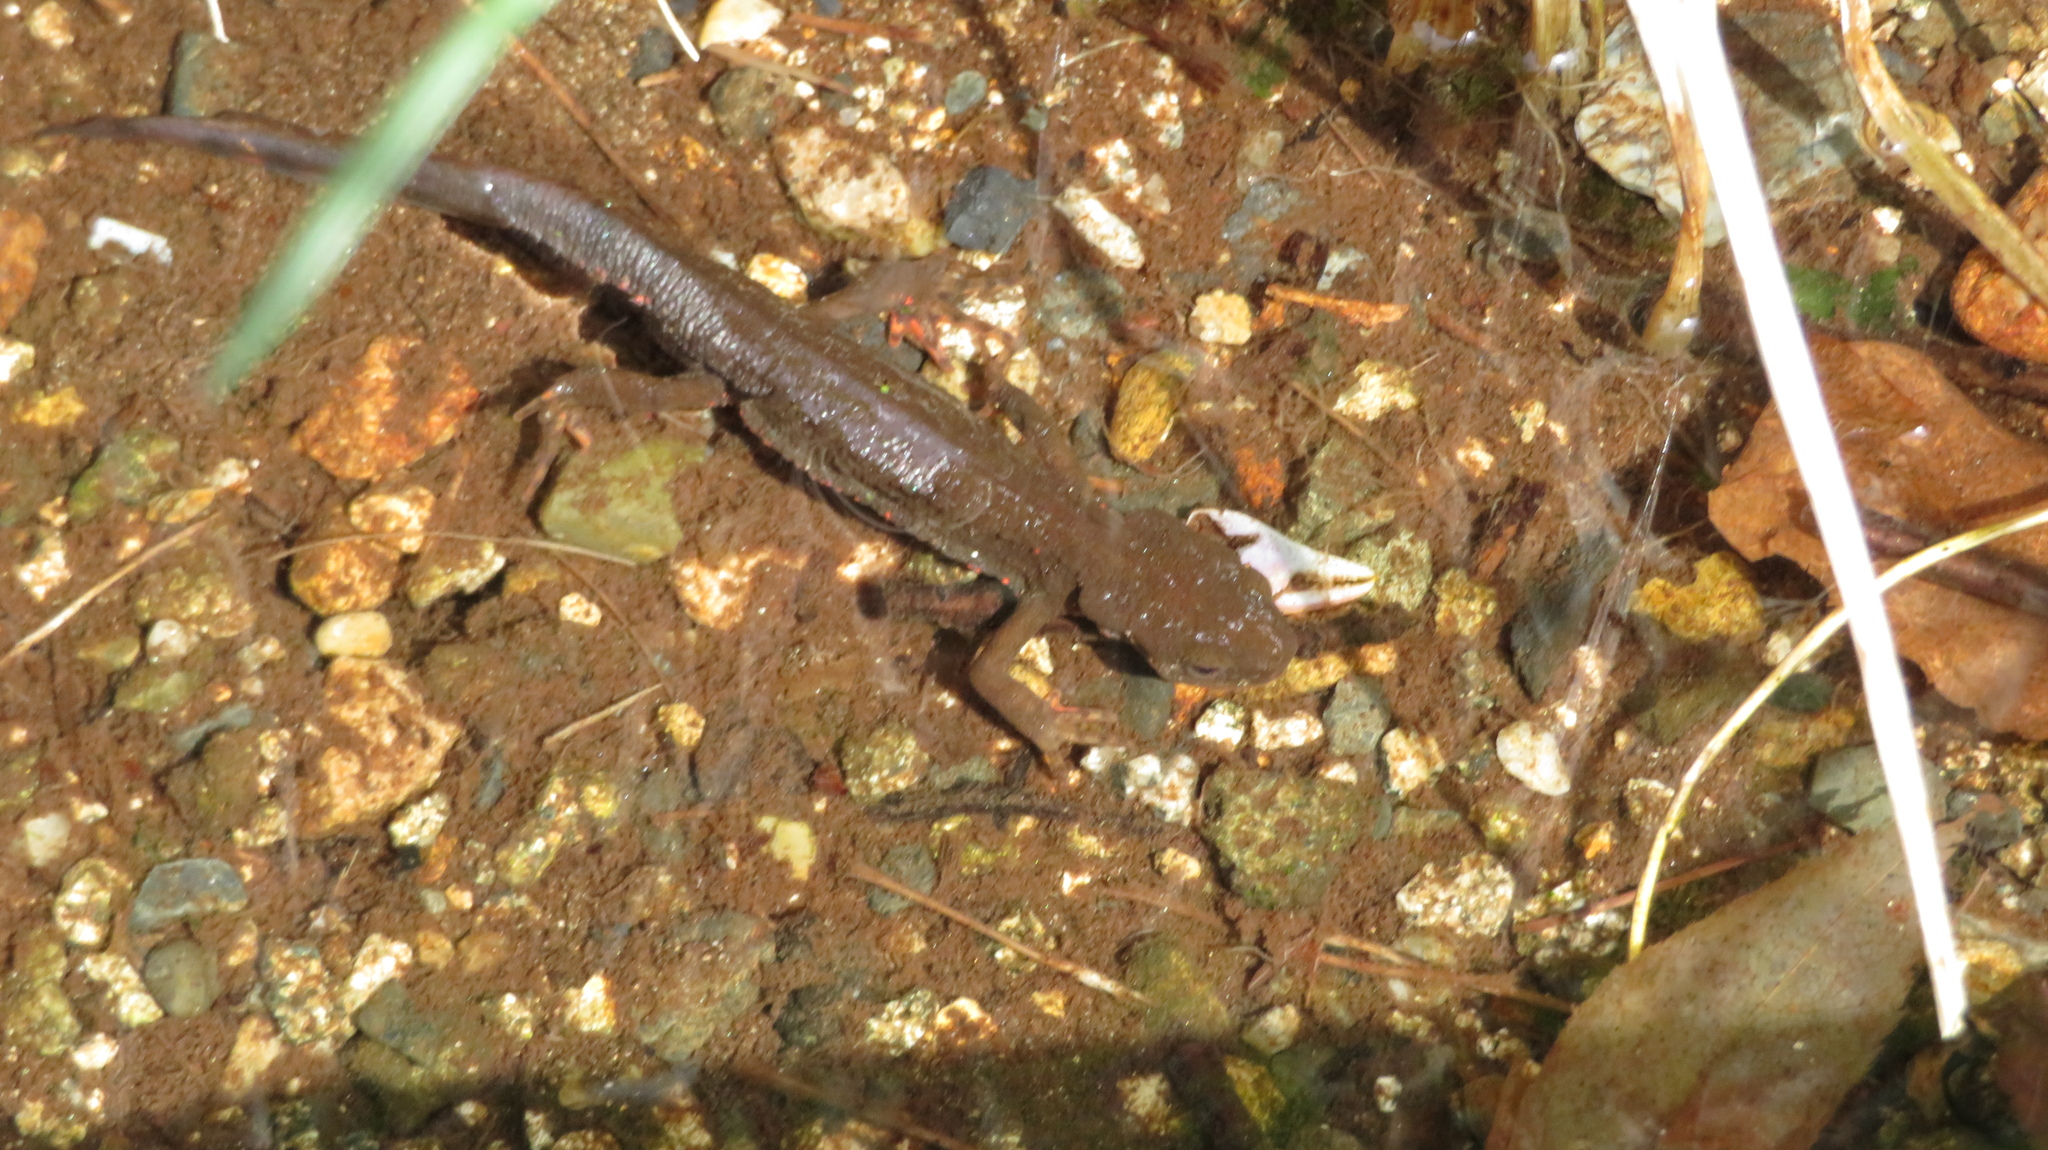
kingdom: Animalia
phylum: Chordata
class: Amphibia
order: Caudata
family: Salamandridae
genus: Cynops
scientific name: Cynops pyrrhogaster
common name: Japanese fire-bellied newt
